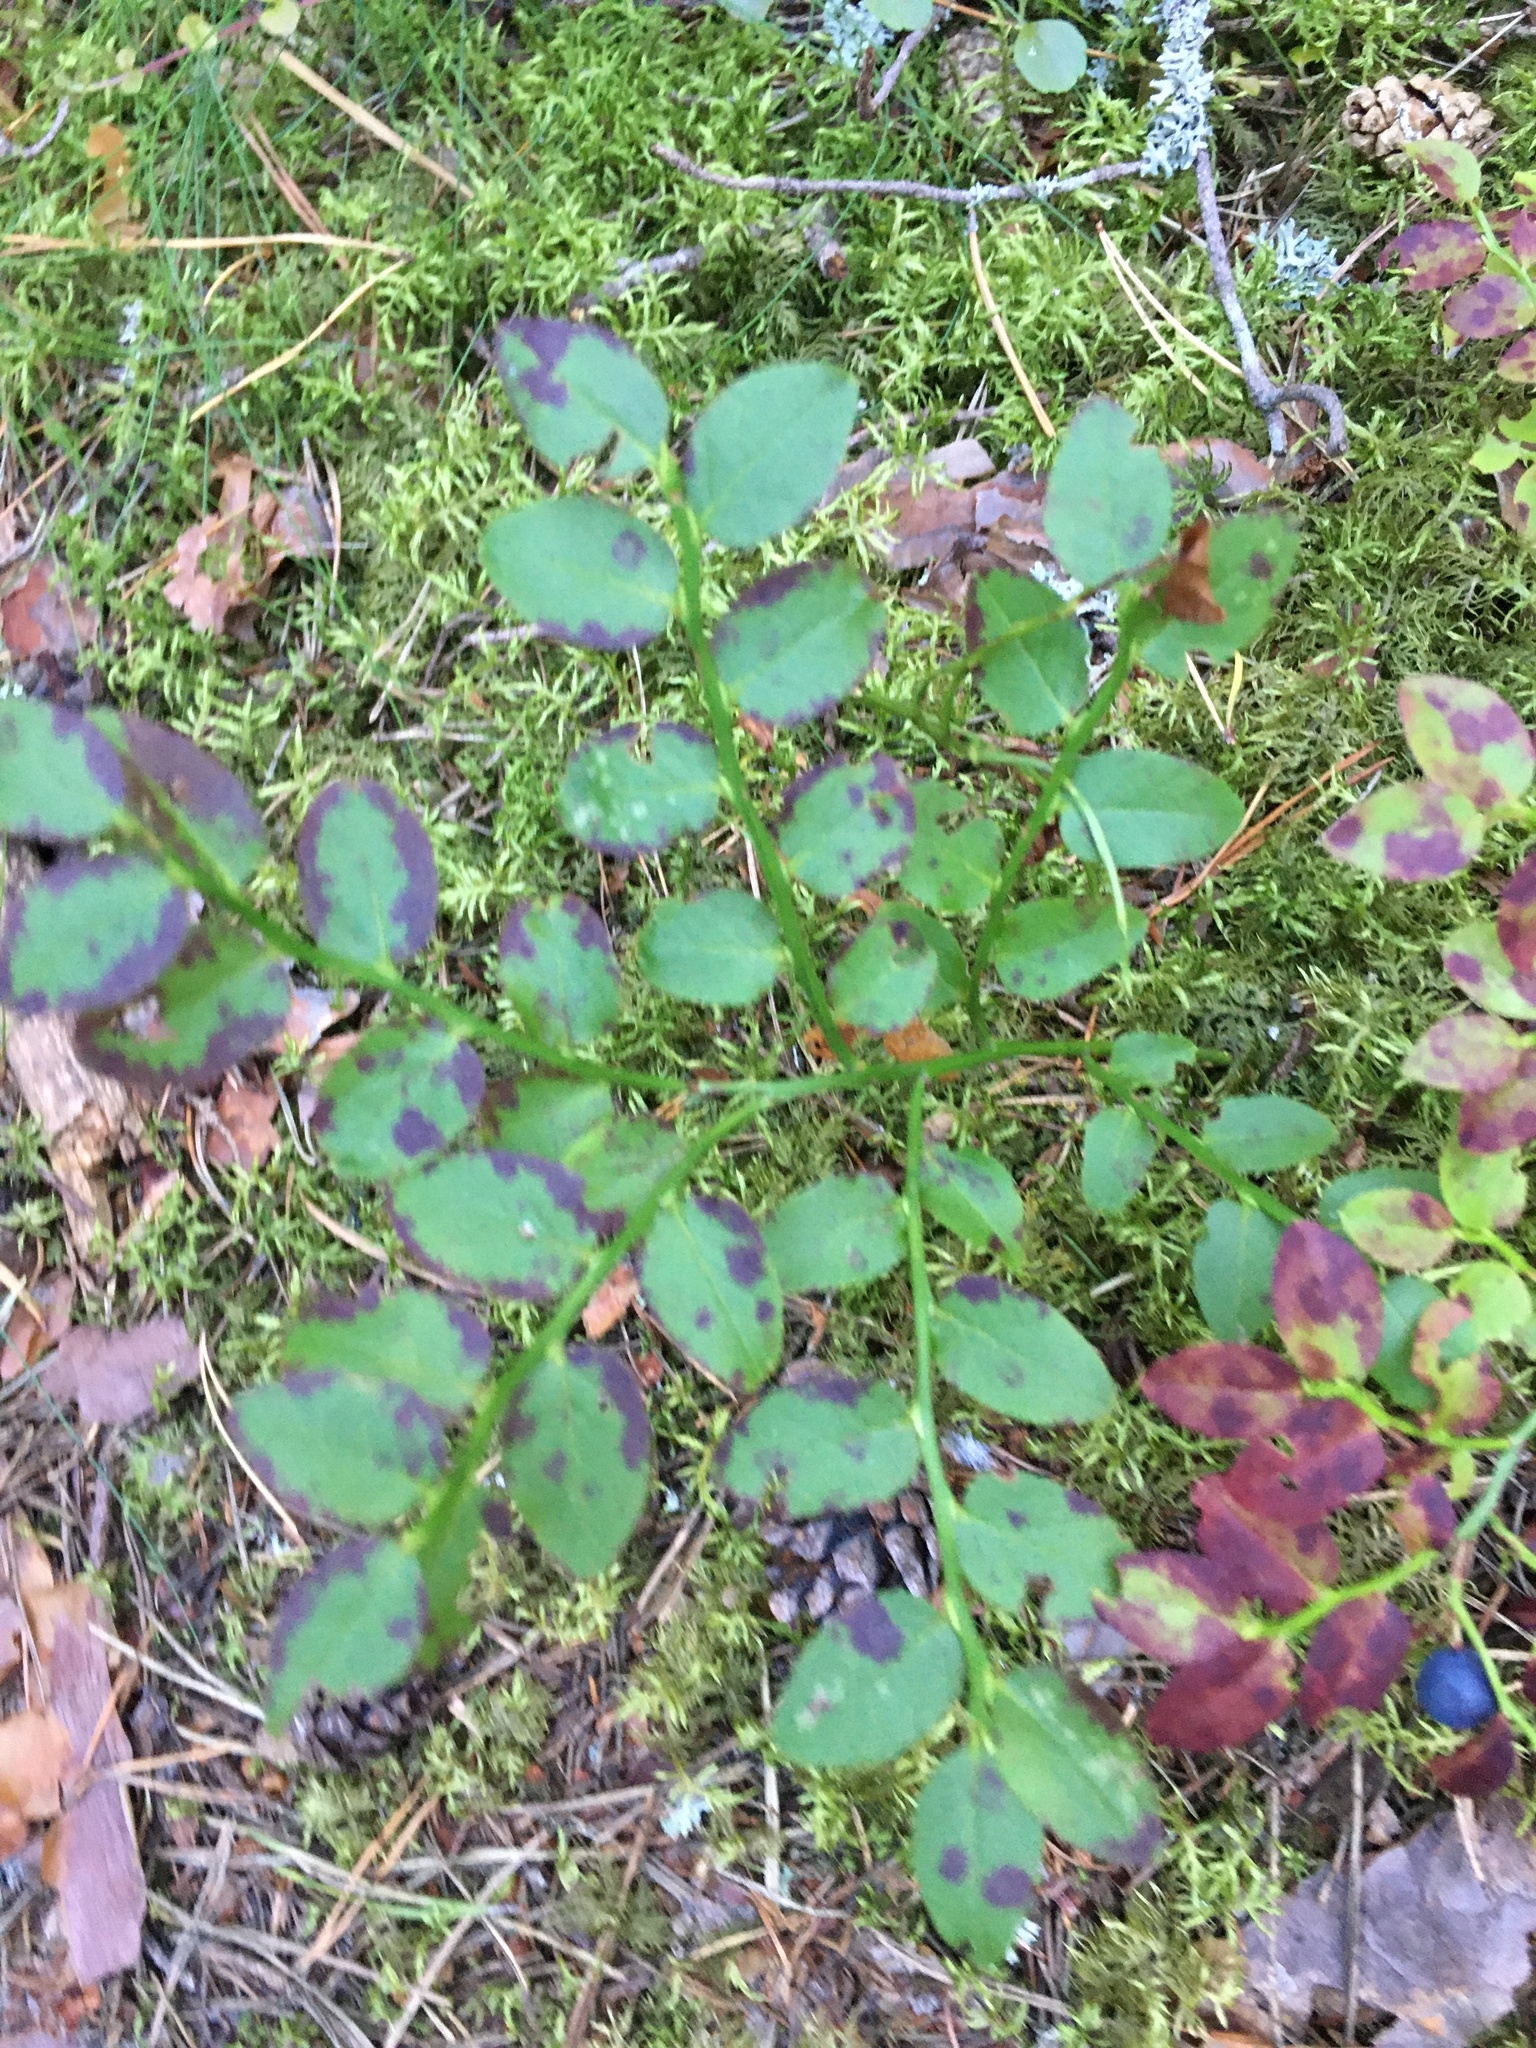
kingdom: Plantae
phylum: Tracheophyta
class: Magnoliopsida
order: Ericales
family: Ericaceae
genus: Vaccinium
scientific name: Vaccinium myrtillus
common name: Bilberry
